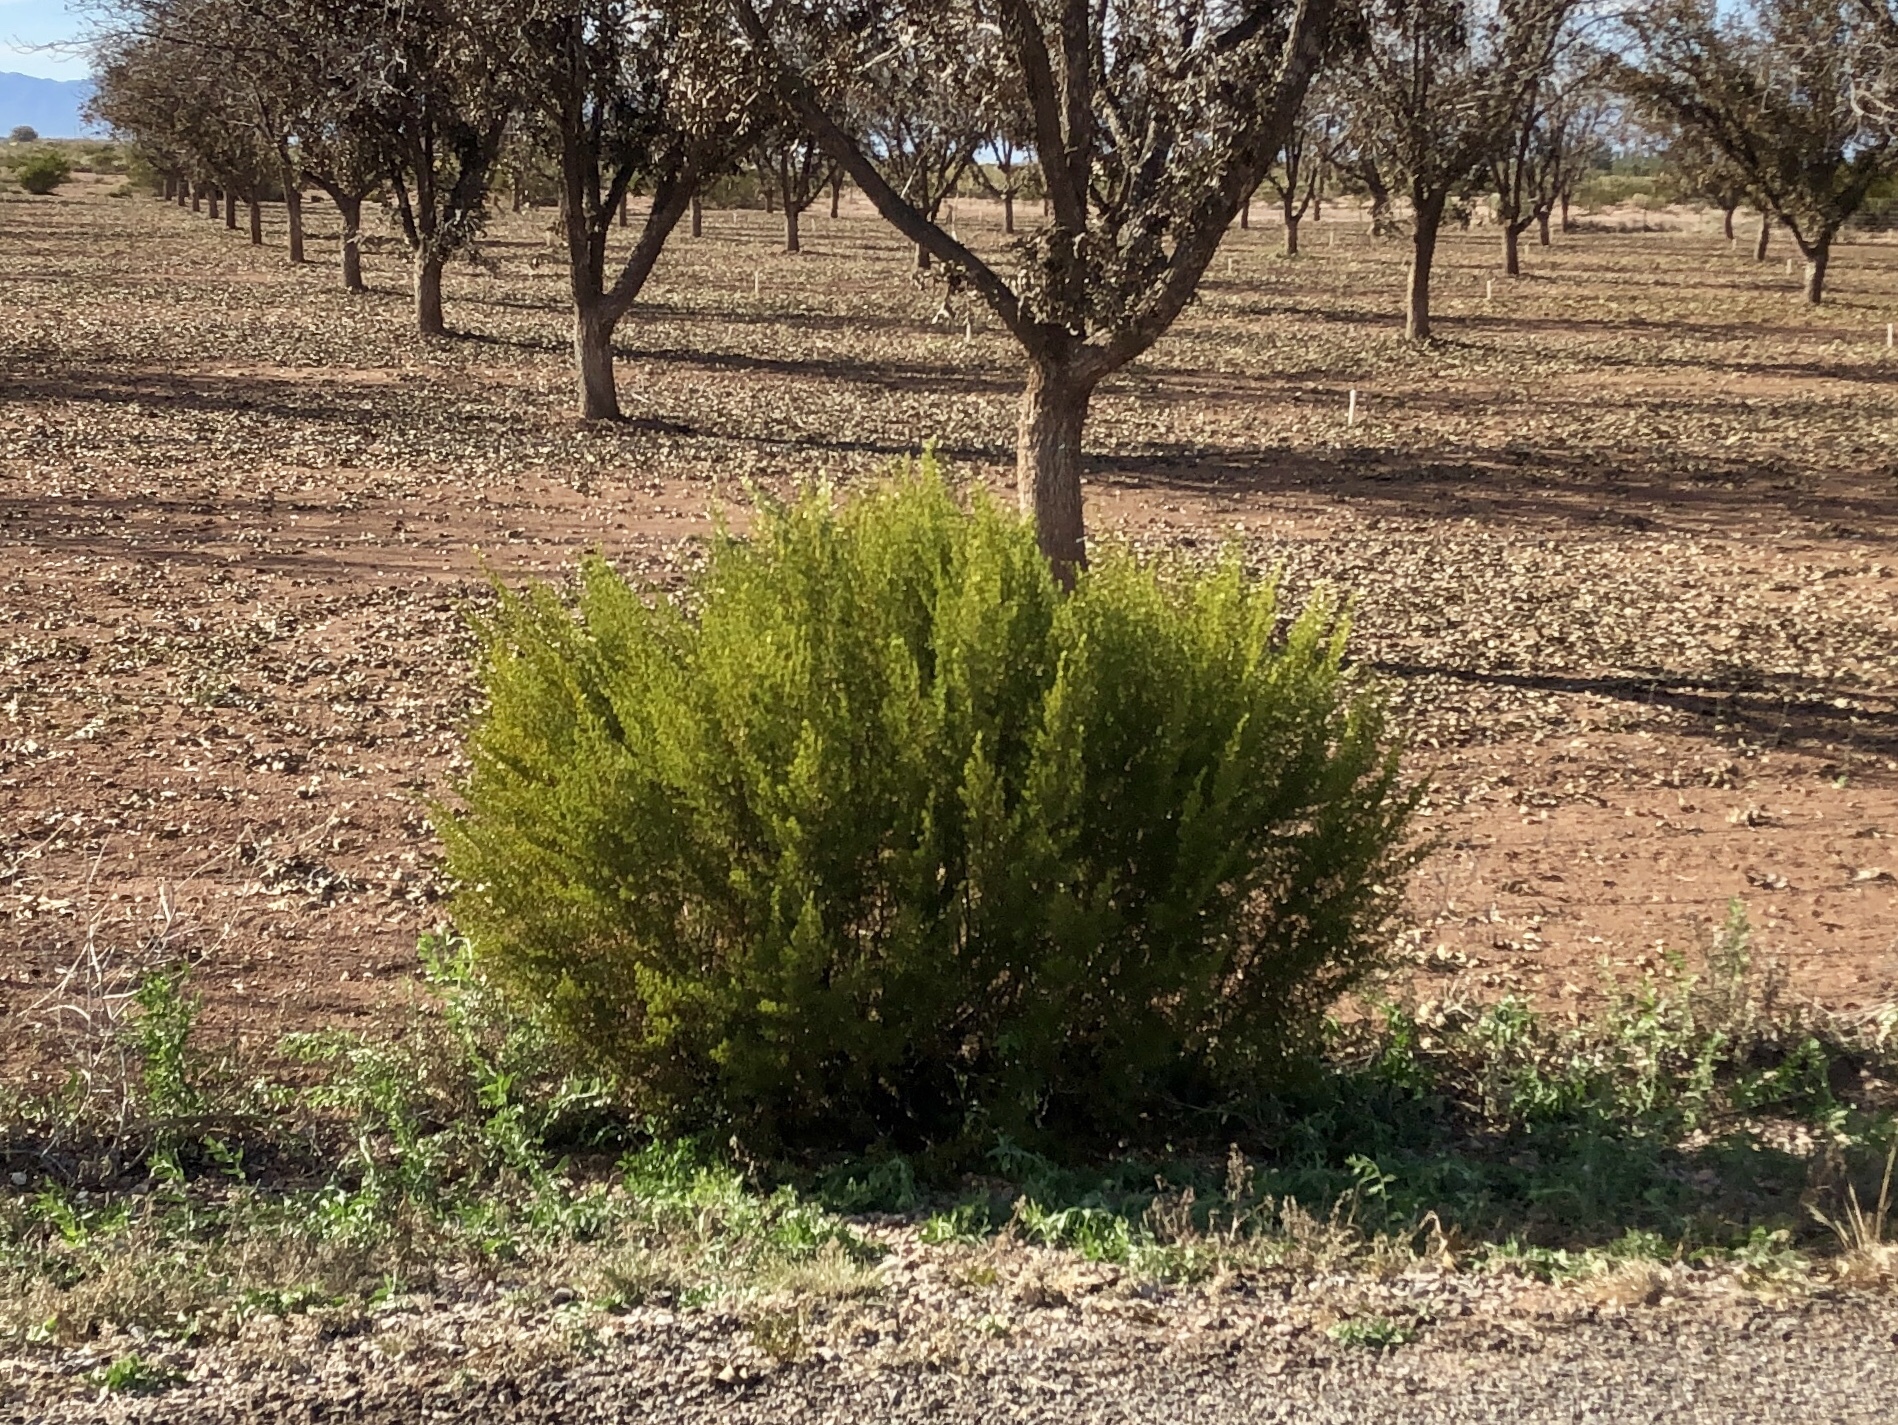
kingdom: Plantae
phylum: Tracheophyta
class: Magnoliopsida
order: Zygophyllales
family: Zygophyllaceae
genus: Larrea
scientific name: Larrea tridentata
